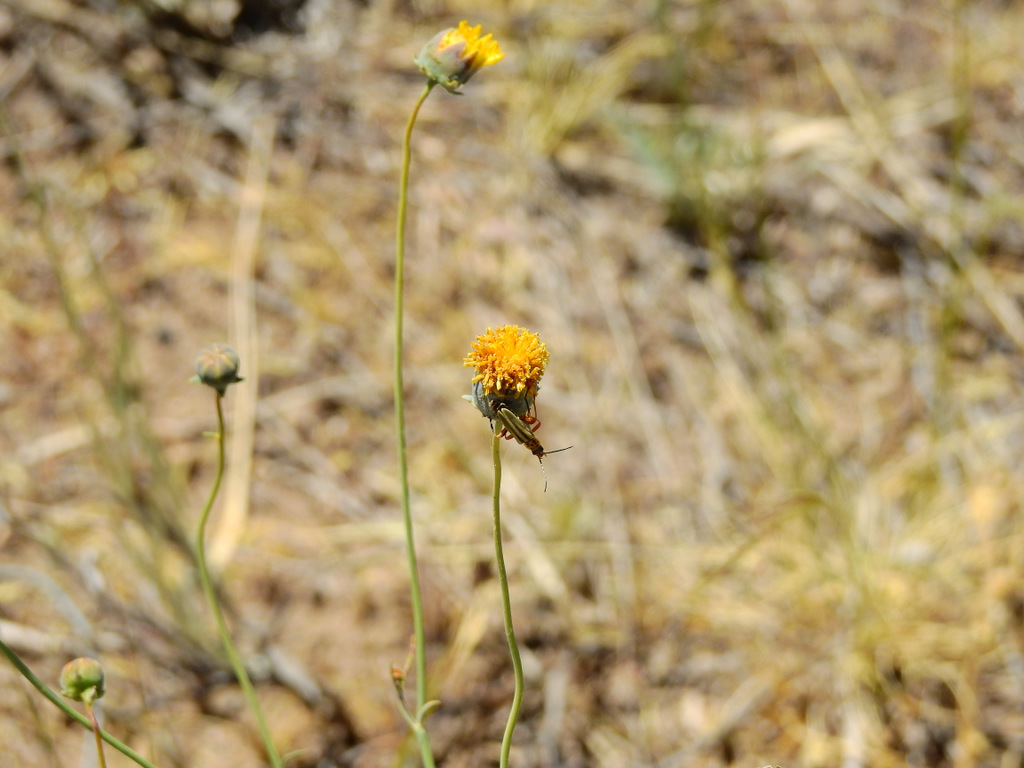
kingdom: Plantae
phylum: Tracheophyta
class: Magnoliopsida
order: Asterales
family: Asteraceae
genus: Thelesperma
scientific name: Thelesperma megapotamicum
